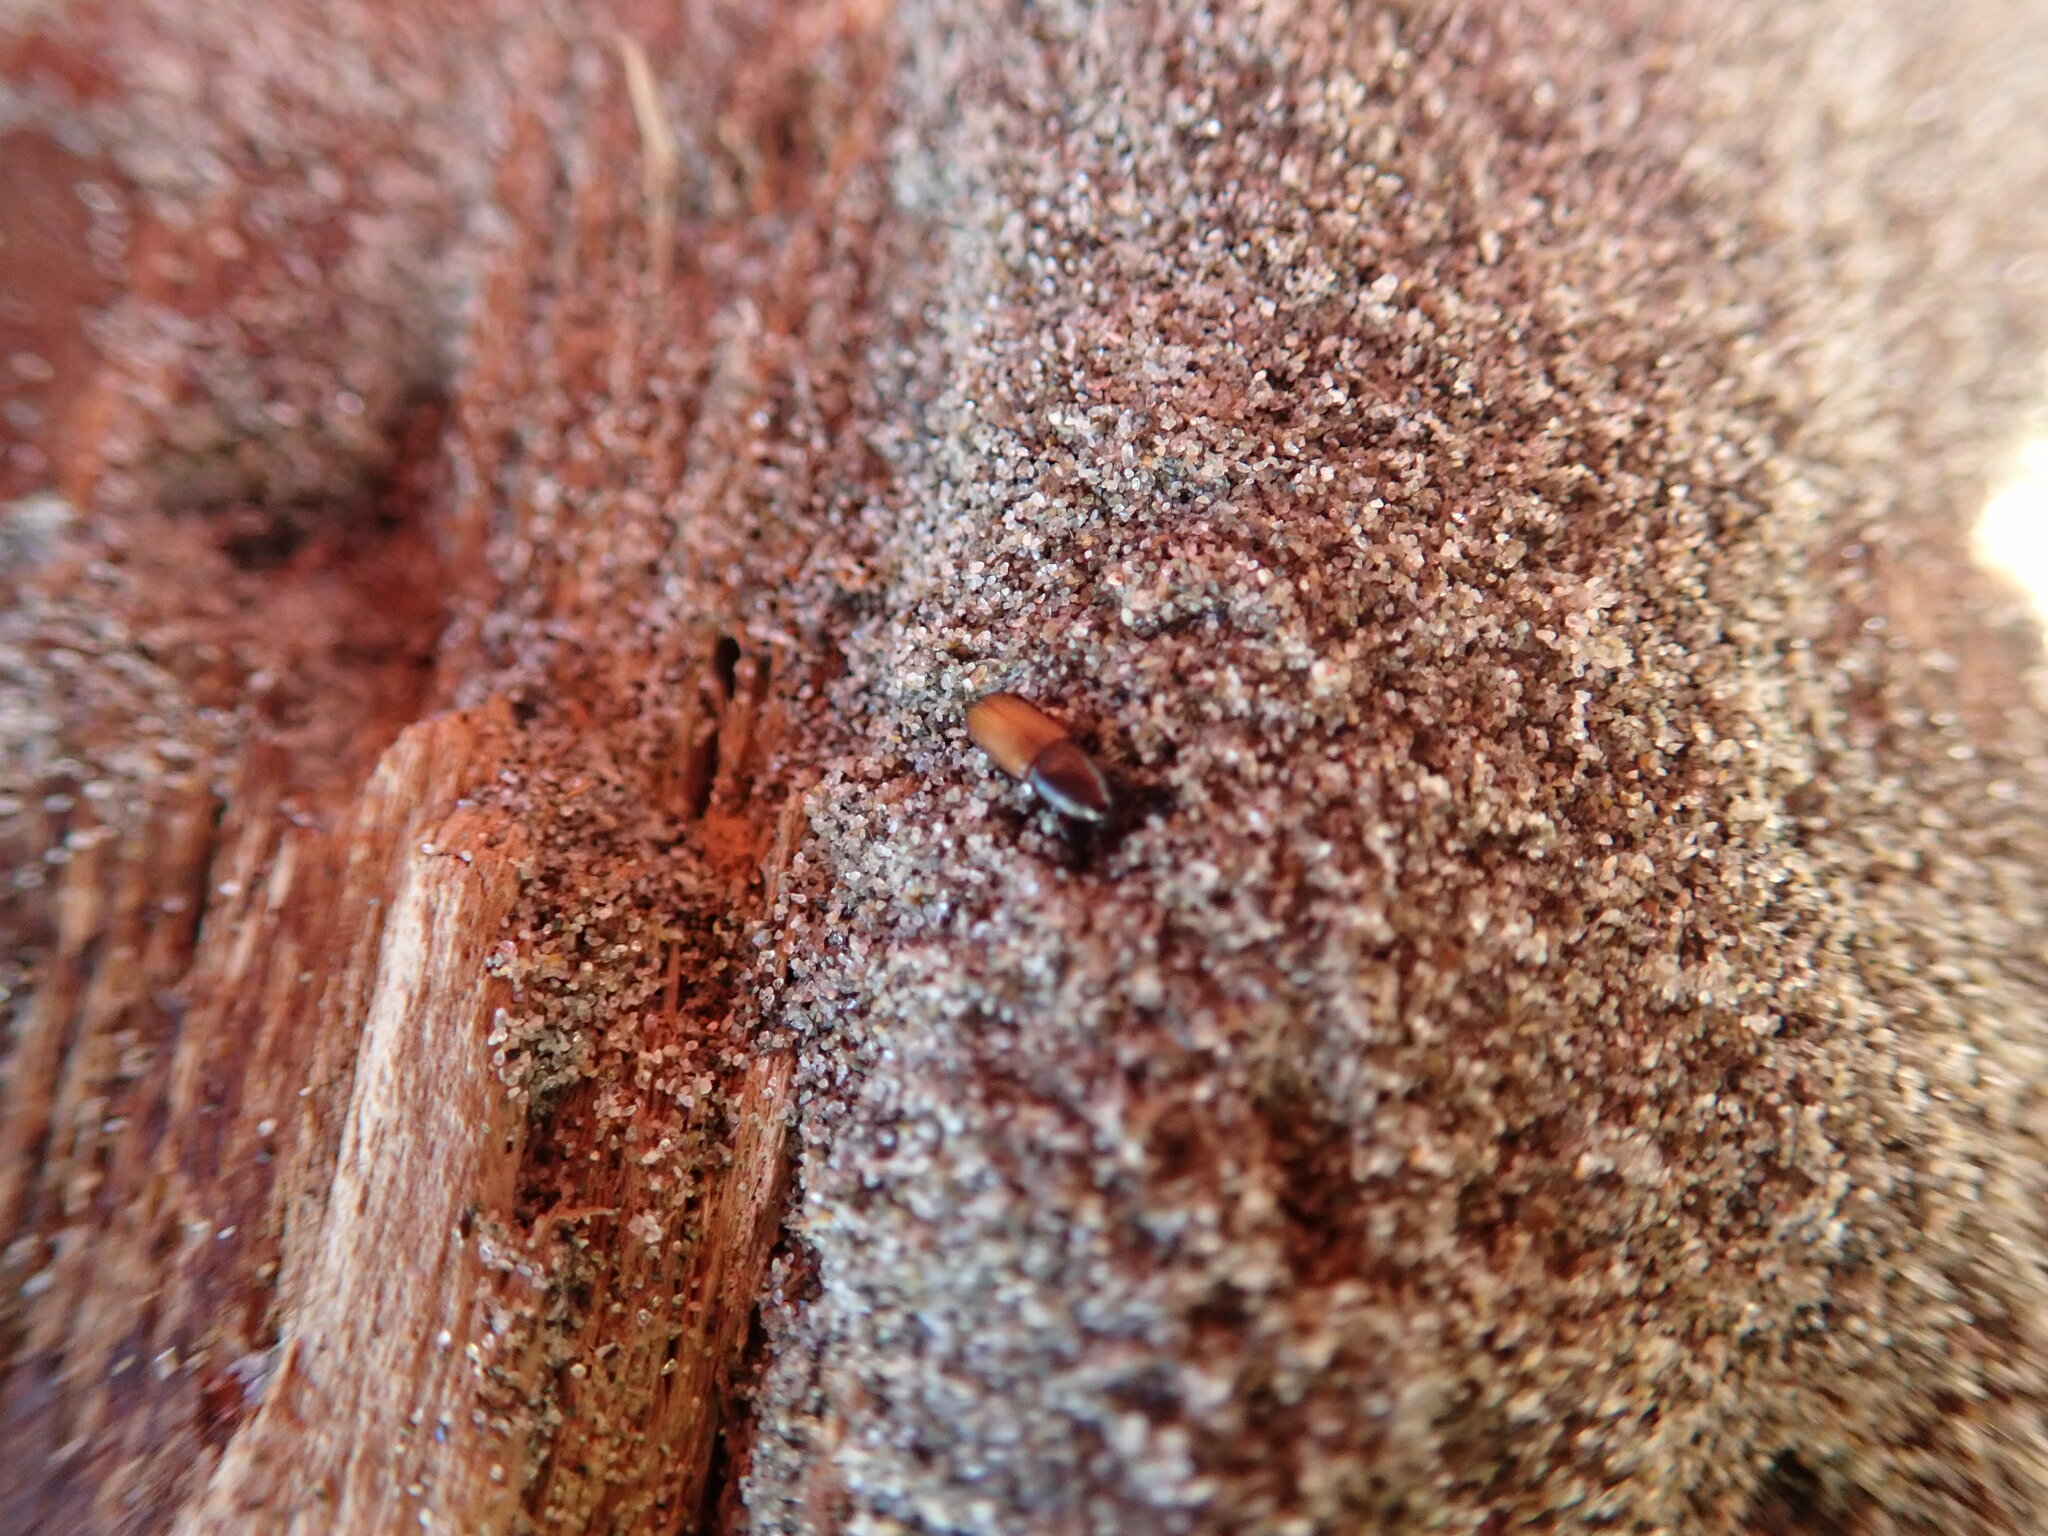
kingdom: Animalia
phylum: Arthropoda
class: Insecta
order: Coleoptera
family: Curculionidae
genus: Mesites
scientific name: Mesites pallidipennis
